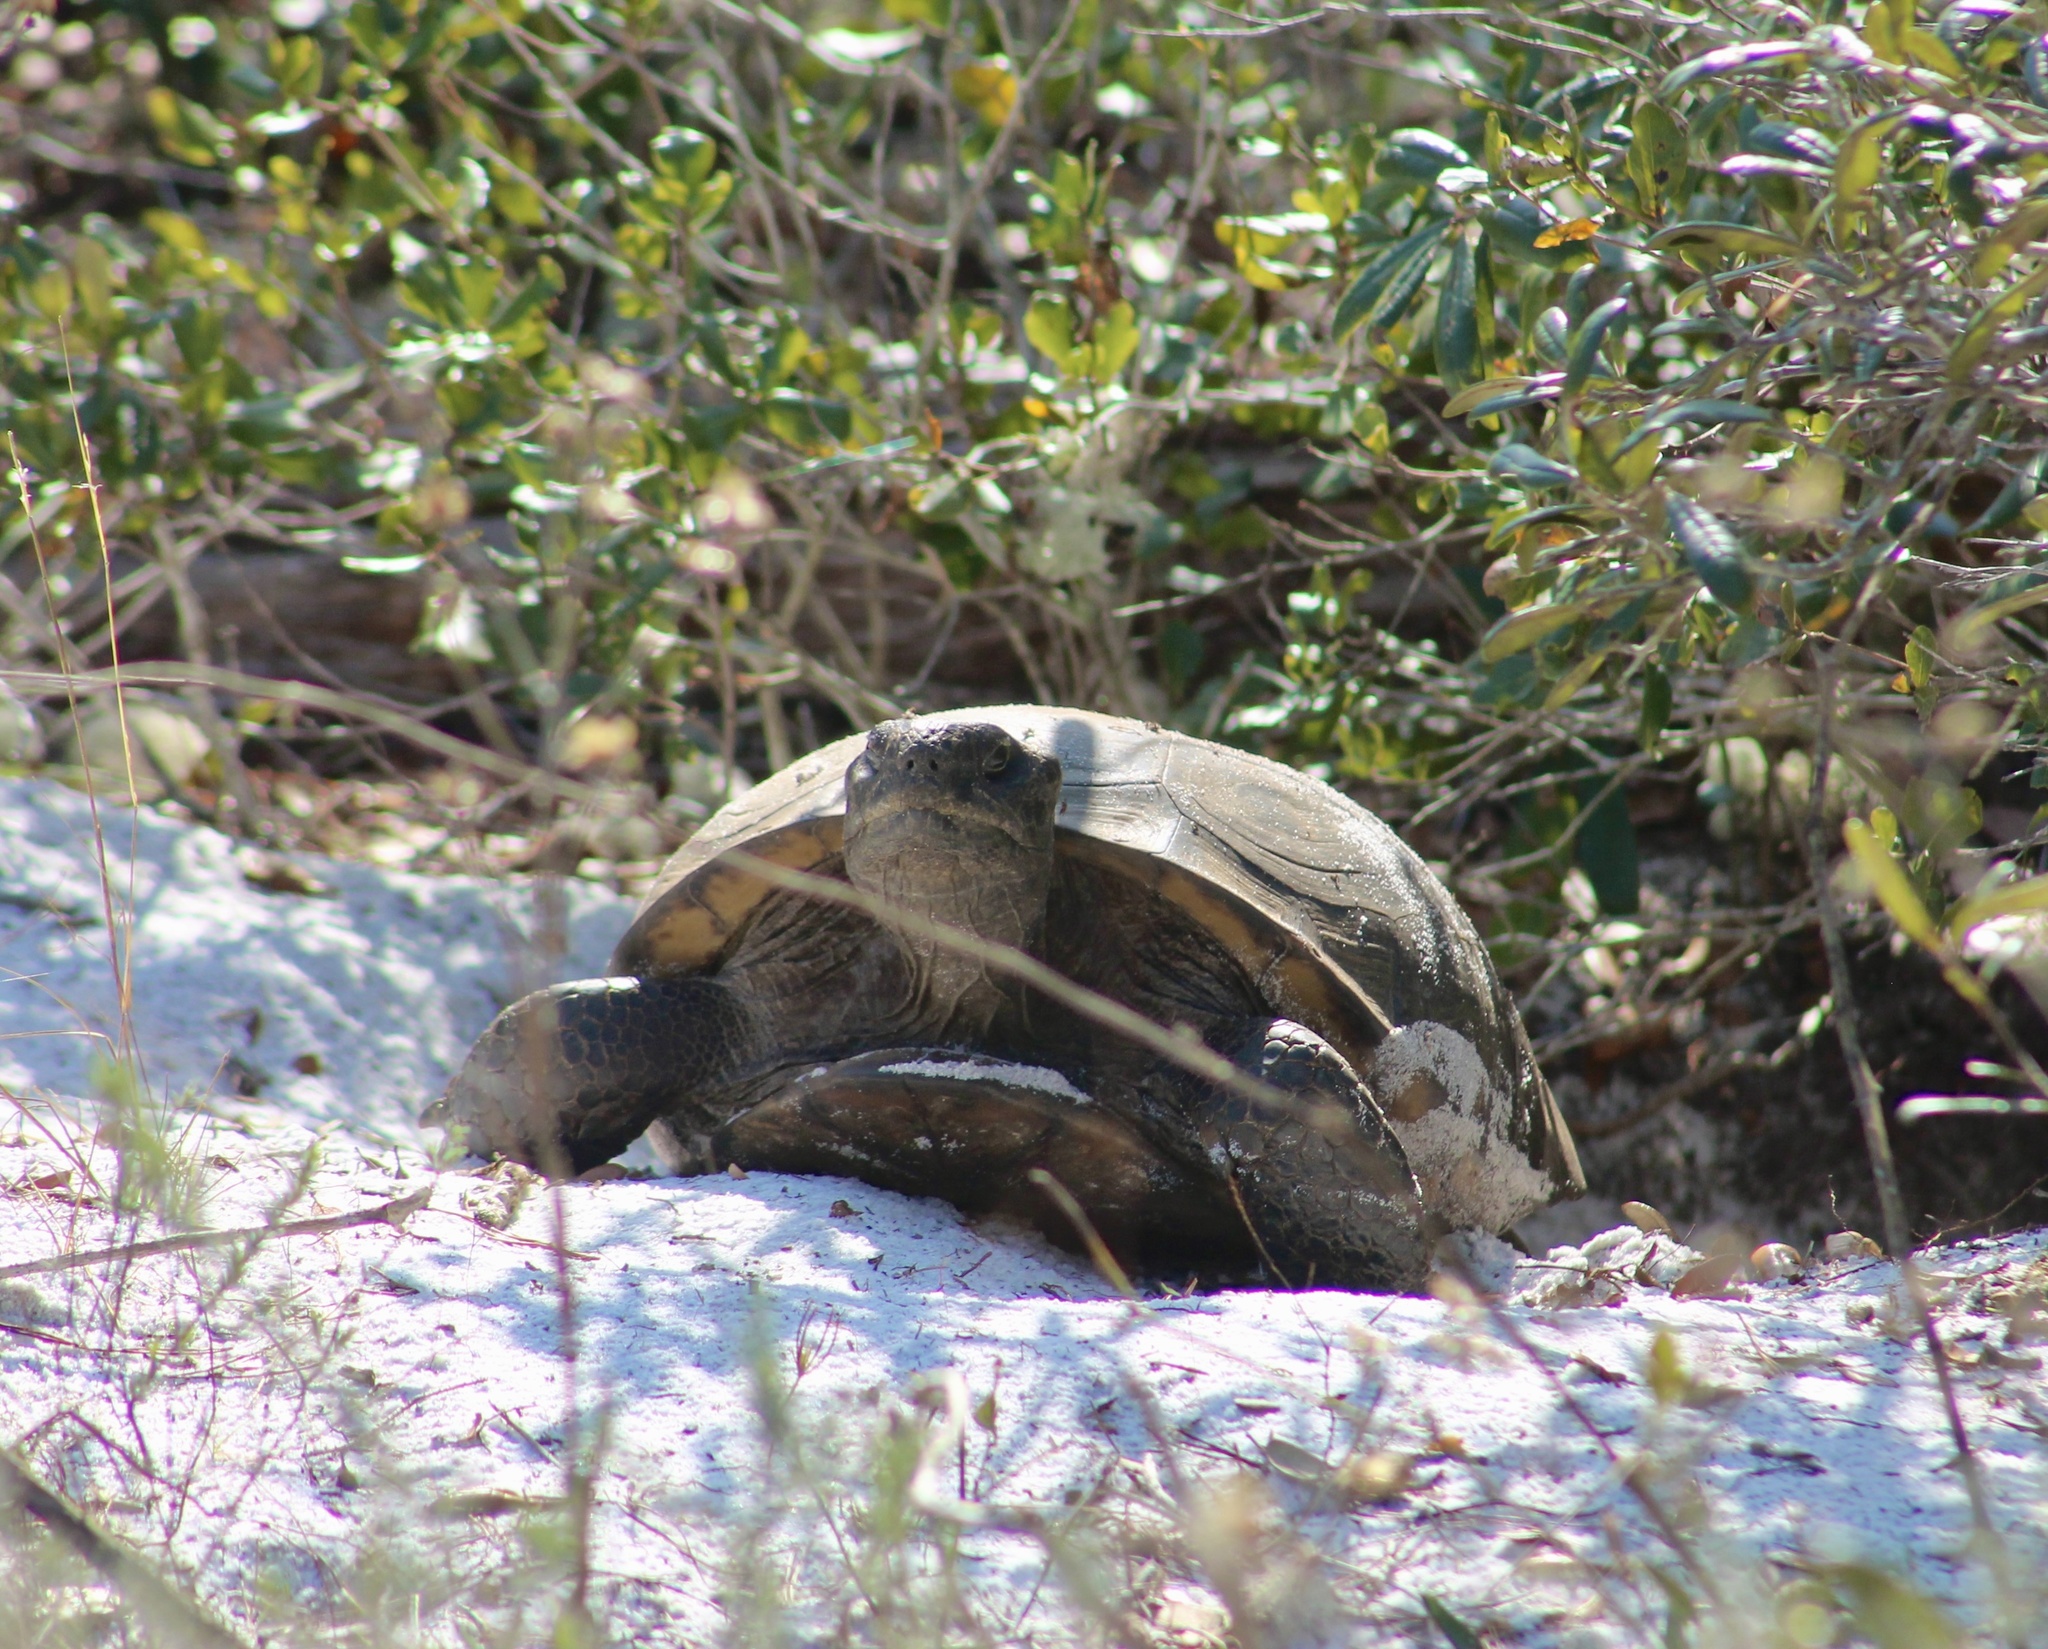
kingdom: Animalia
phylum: Chordata
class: Testudines
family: Testudinidae
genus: Gopherus
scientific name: Gopherus polyphemus
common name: Florida gopher tortoise
